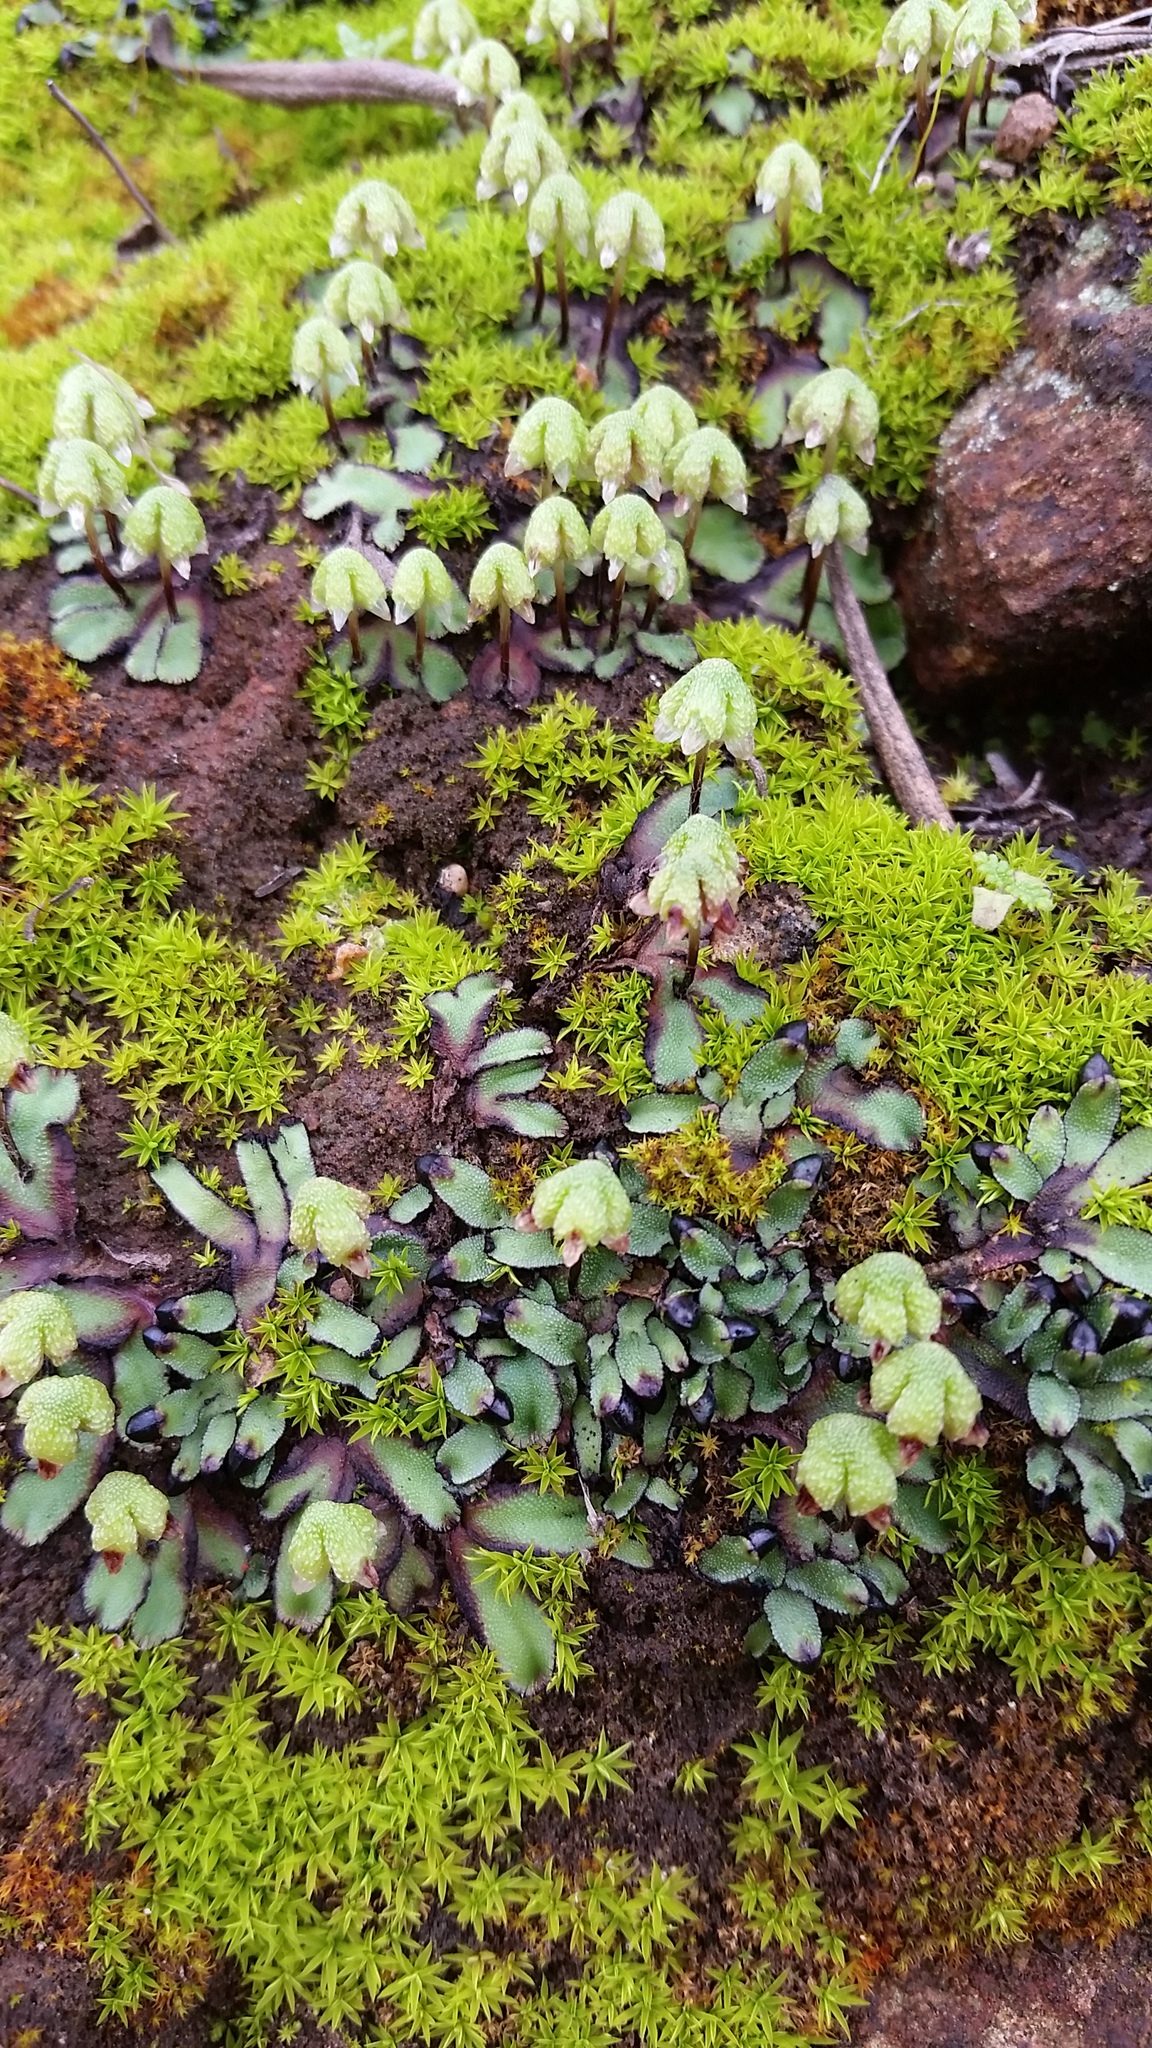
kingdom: Plantae
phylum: Marchantiophyta
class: Marchantiopsida
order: Marchantiales
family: Aytoniaceae
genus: Asterella
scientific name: Asterella californica
